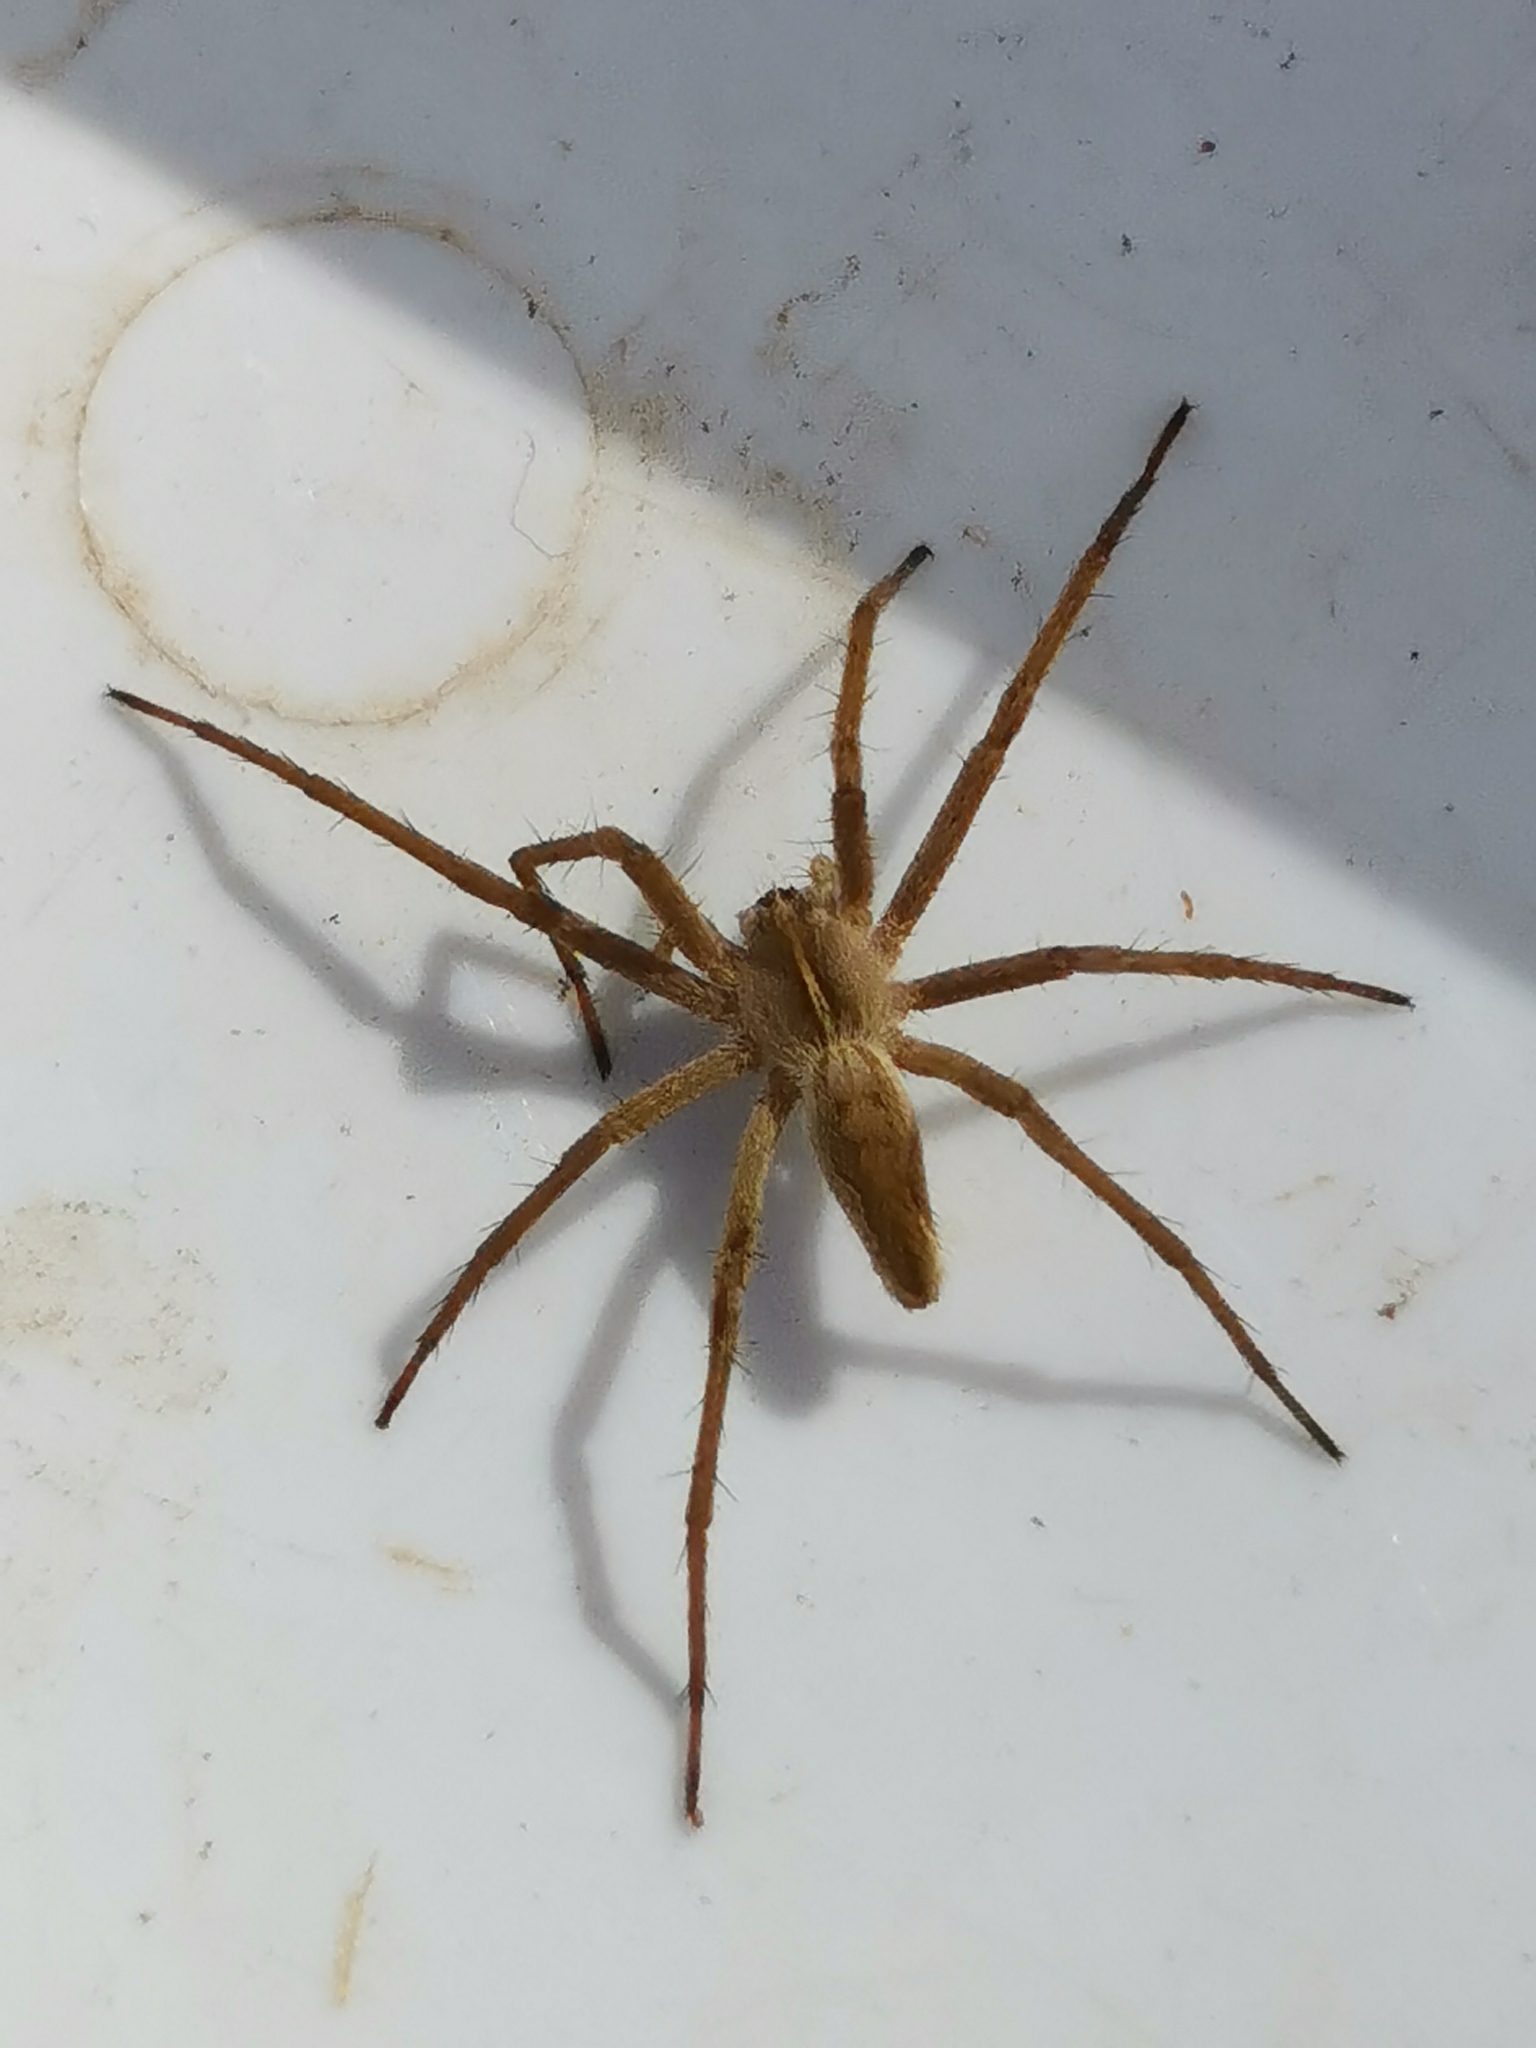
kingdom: Animalia
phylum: Arthropoda
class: Arachnida
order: Araneae
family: Pisauridae
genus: Pisaura
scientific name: Pisaura
